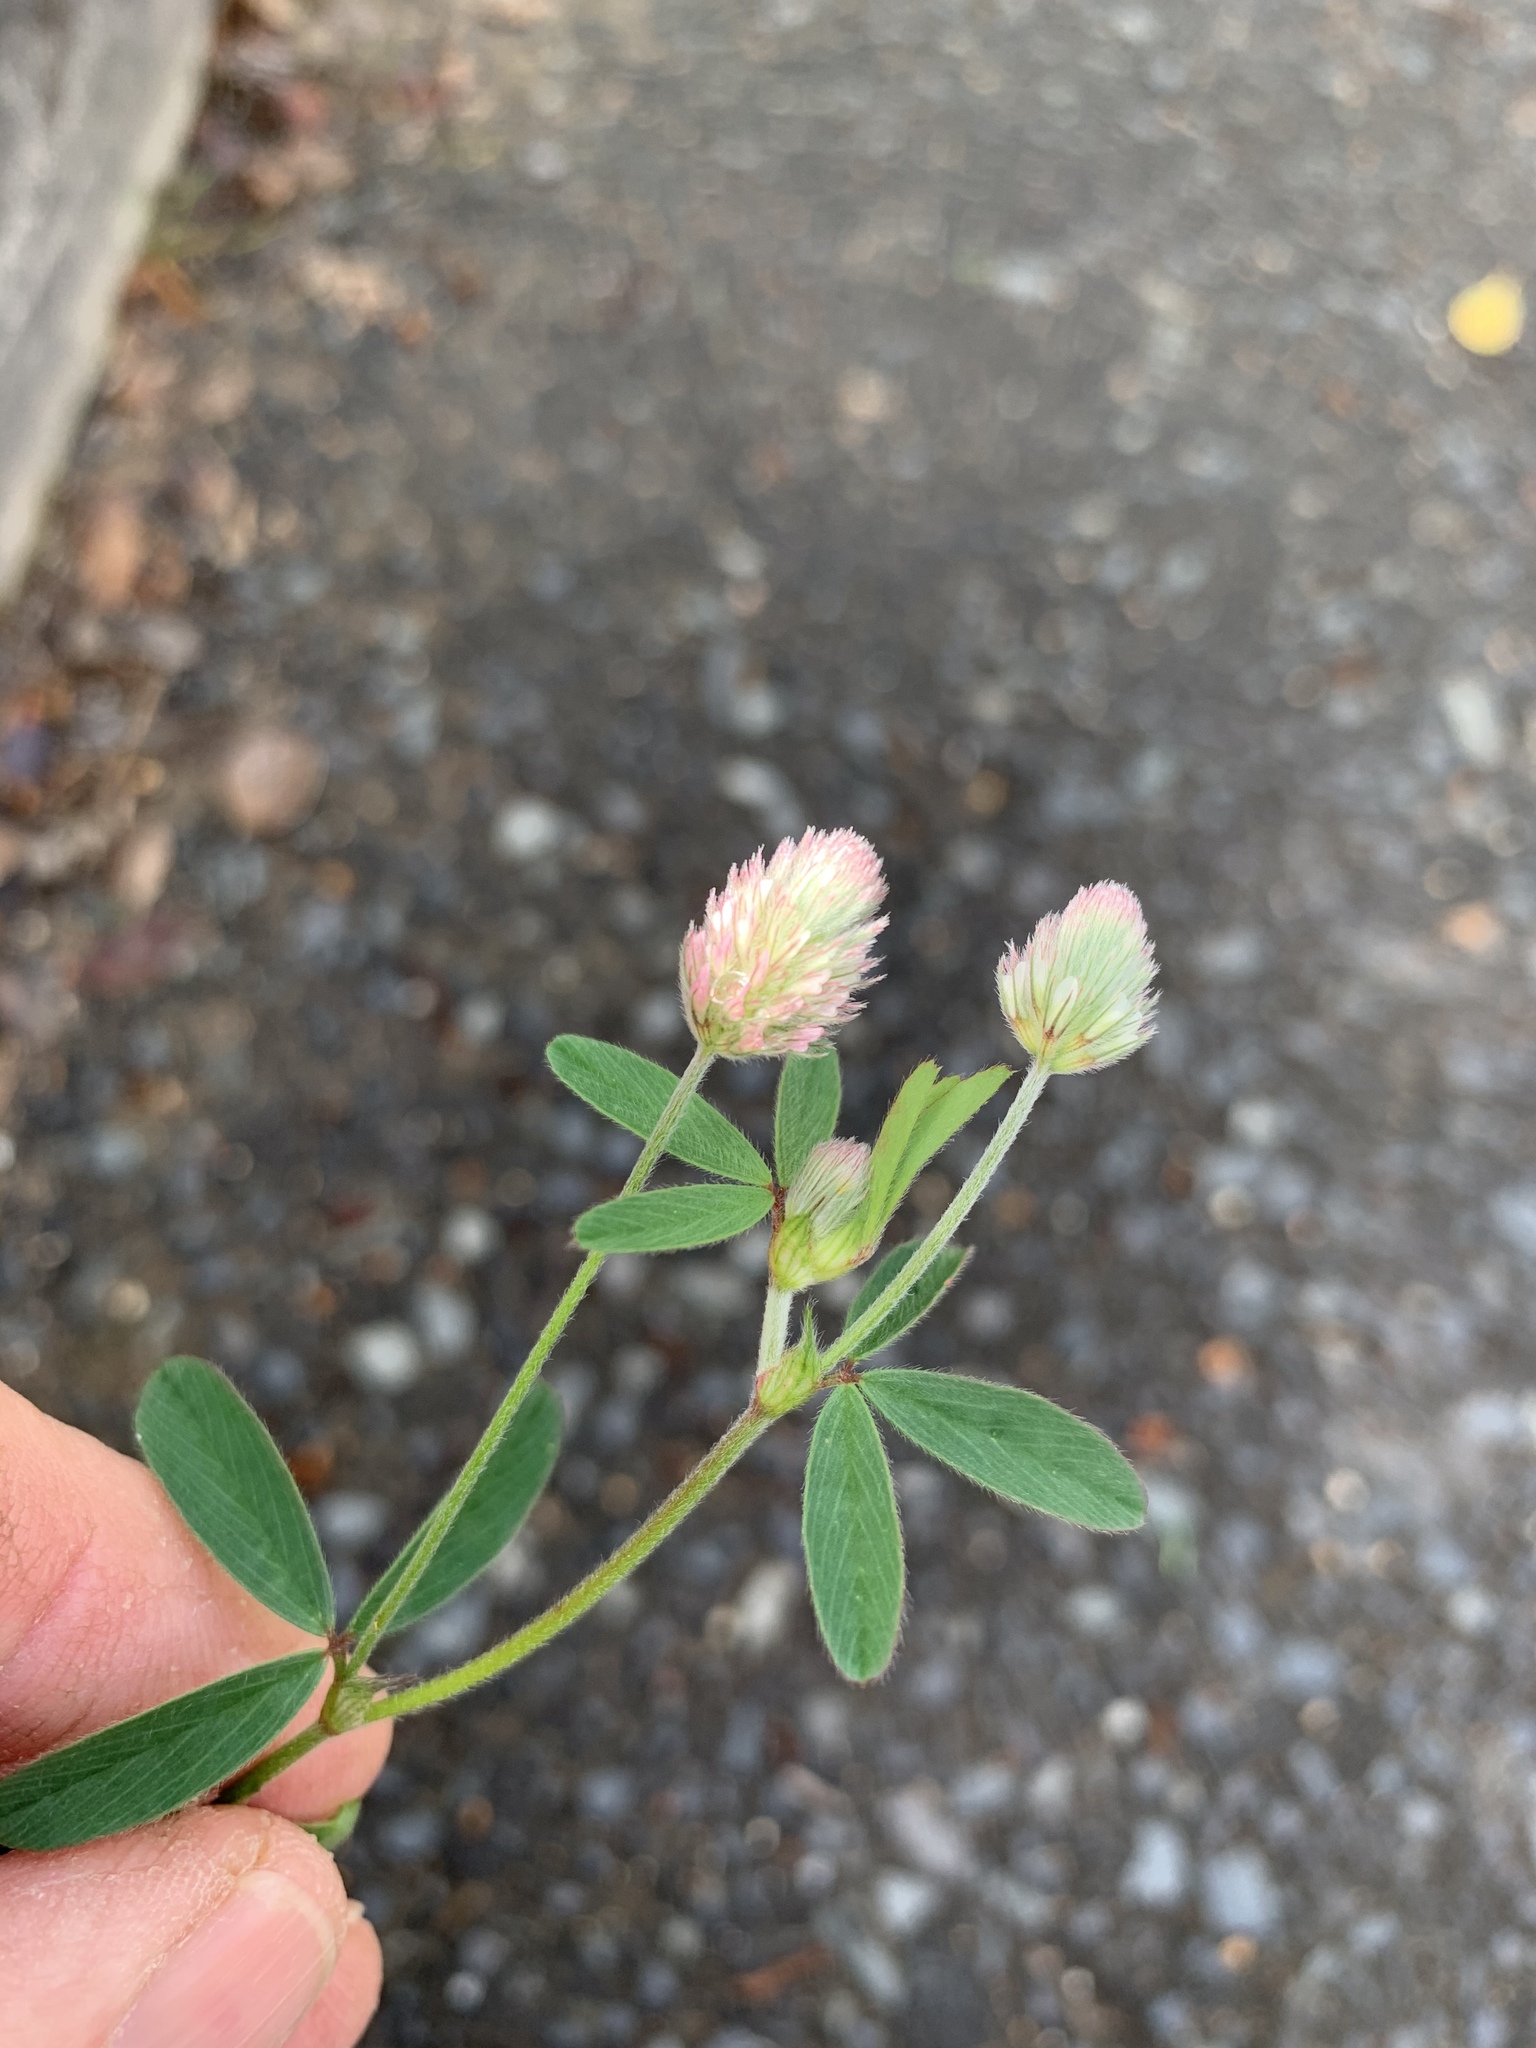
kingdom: Plantae
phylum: Tracheophyta
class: Magnoliopsida
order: Fabales
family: Fabaceae
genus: Trifolium
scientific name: Trifolium arvense
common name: Hare's-foot clover
